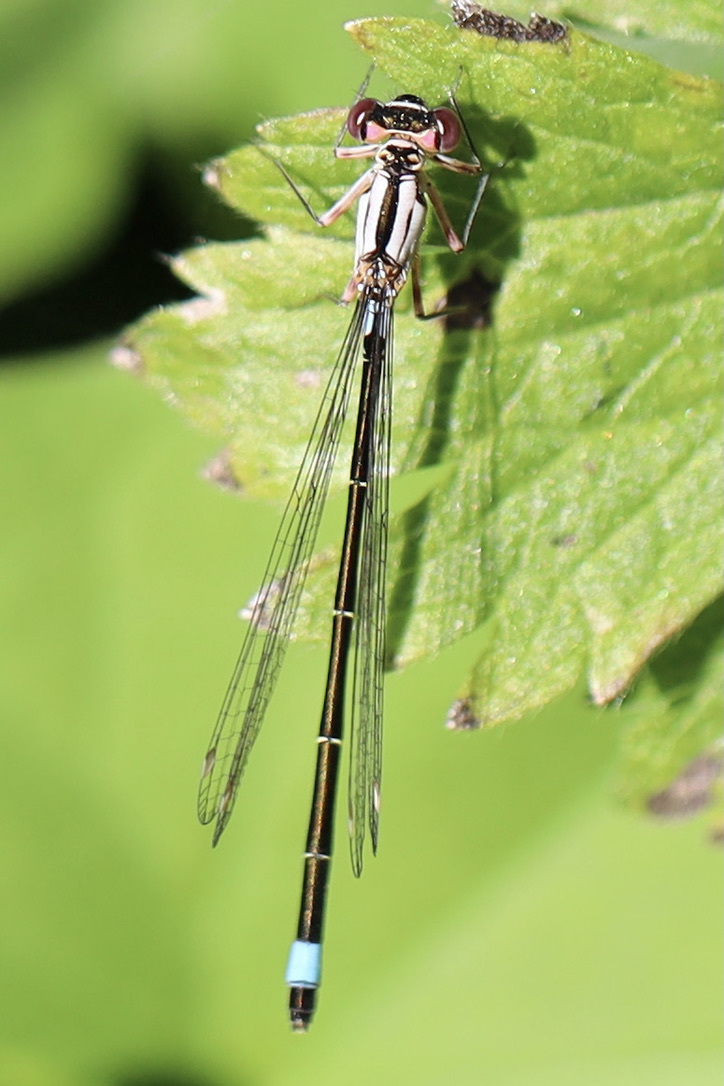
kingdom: Animalia
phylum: Arthropoda
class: Insecta
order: Odonata
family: Coenagrionidae
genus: Ischnura
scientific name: Ischnura cervula
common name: Pacific forktail
